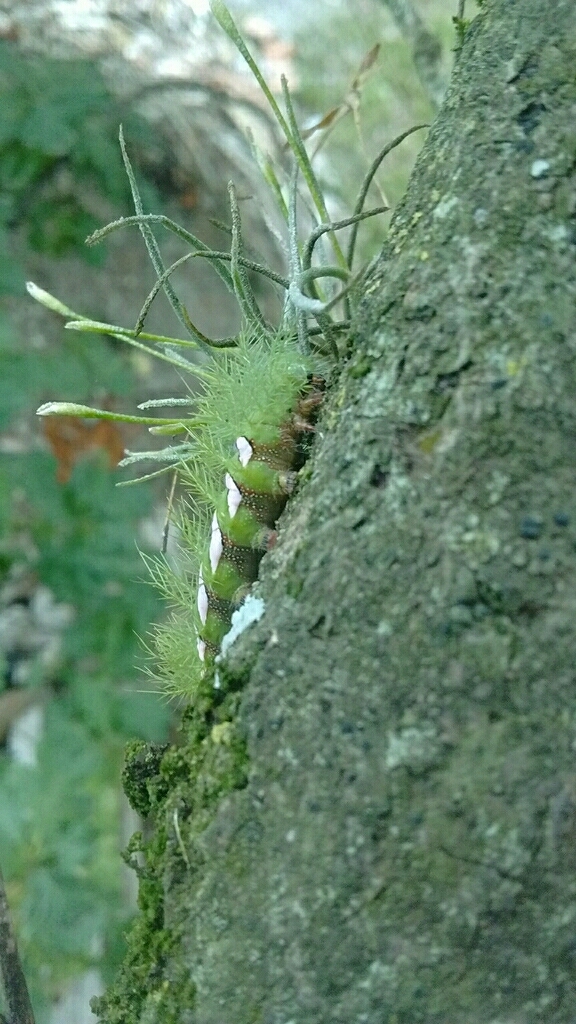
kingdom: Animalia
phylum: Arthropoda
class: Insecta
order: Lepidoptera
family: Saturniidae
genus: Automeris
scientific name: Automeris naranja
